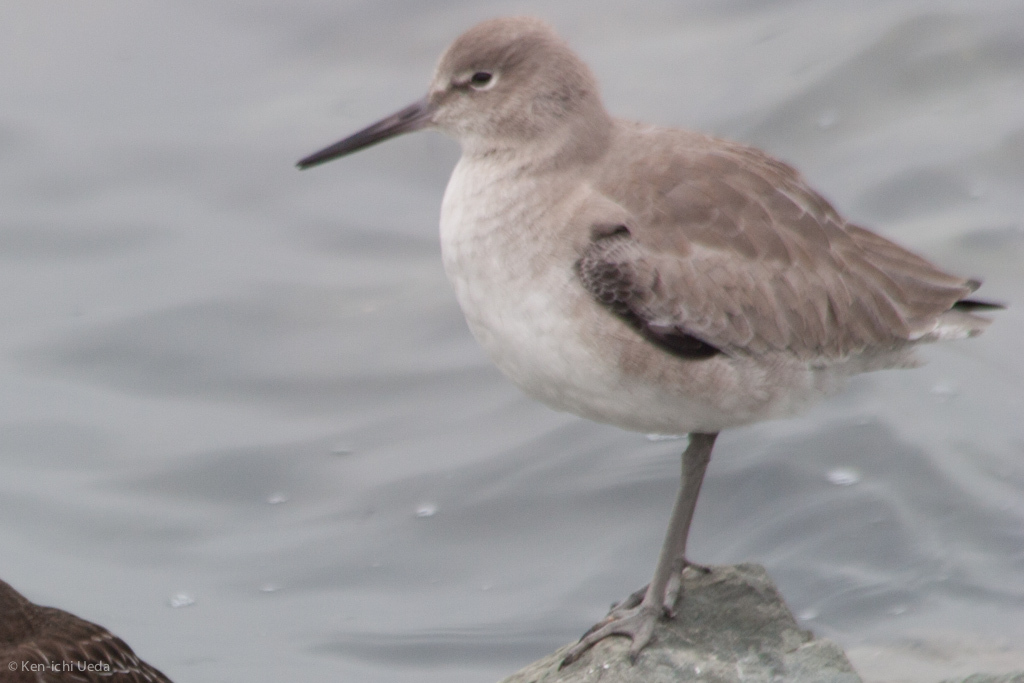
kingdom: Animalia
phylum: Chordata
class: Aves
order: Charadriiformes
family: Scolopacidae
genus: Tringa
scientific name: Tringa semipalmata
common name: Willet
